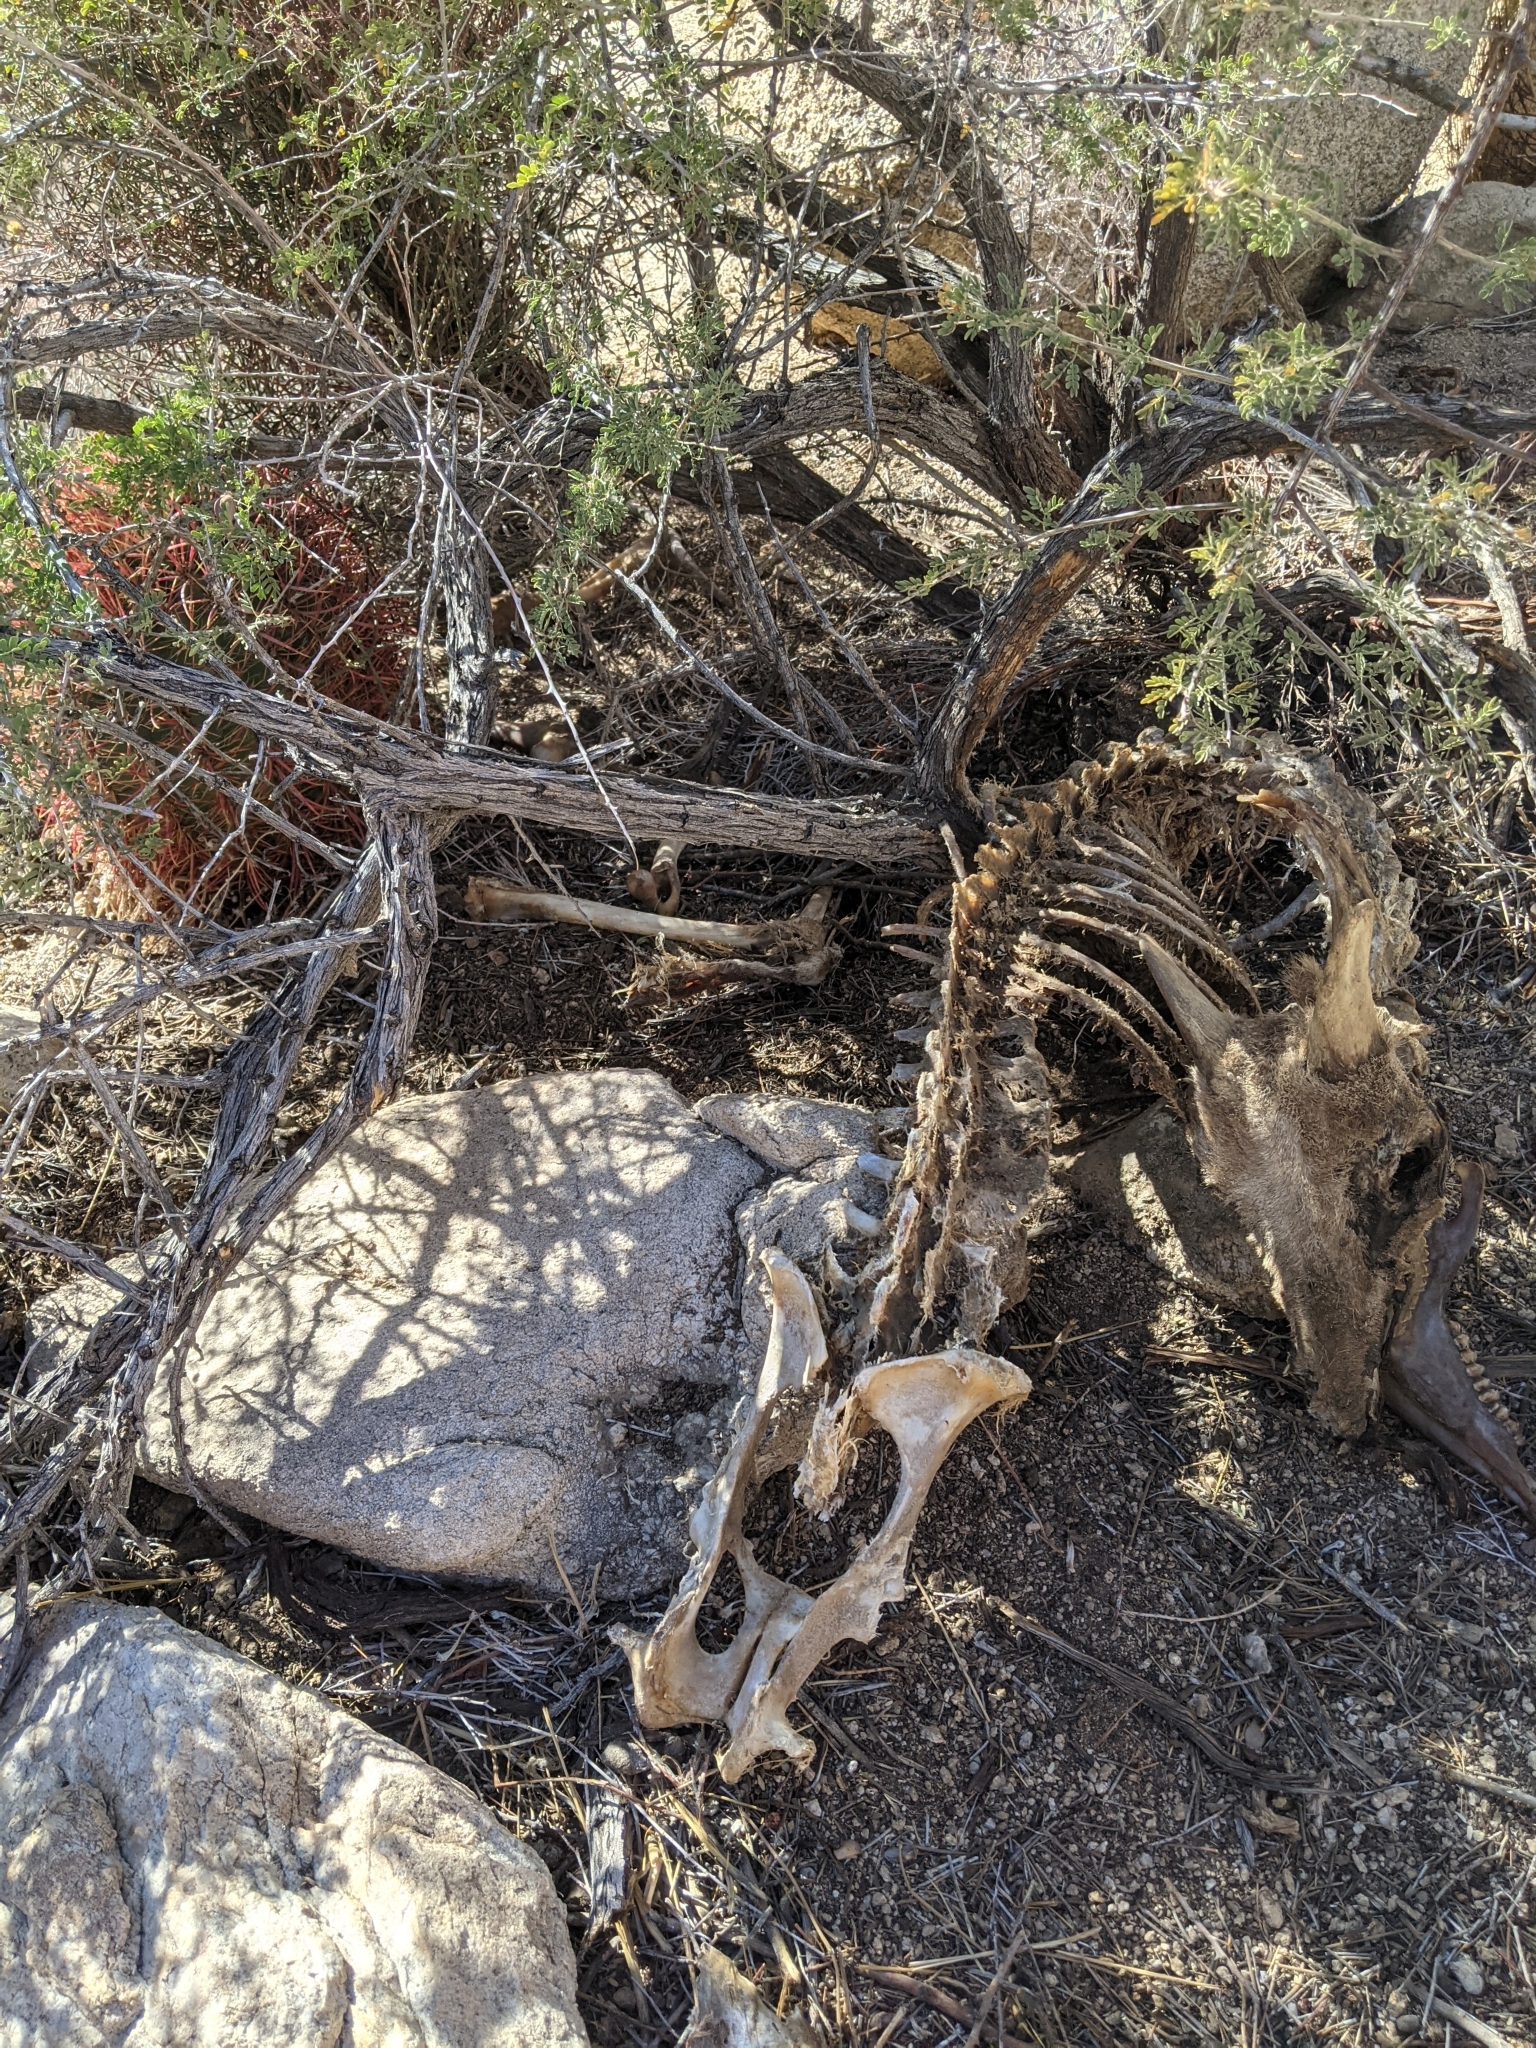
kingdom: Animalia
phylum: Chordata
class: Mammalia
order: Artiodactyla
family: Bovidae
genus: Ovis
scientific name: Ovis canadensis
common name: Bighorn sheep
